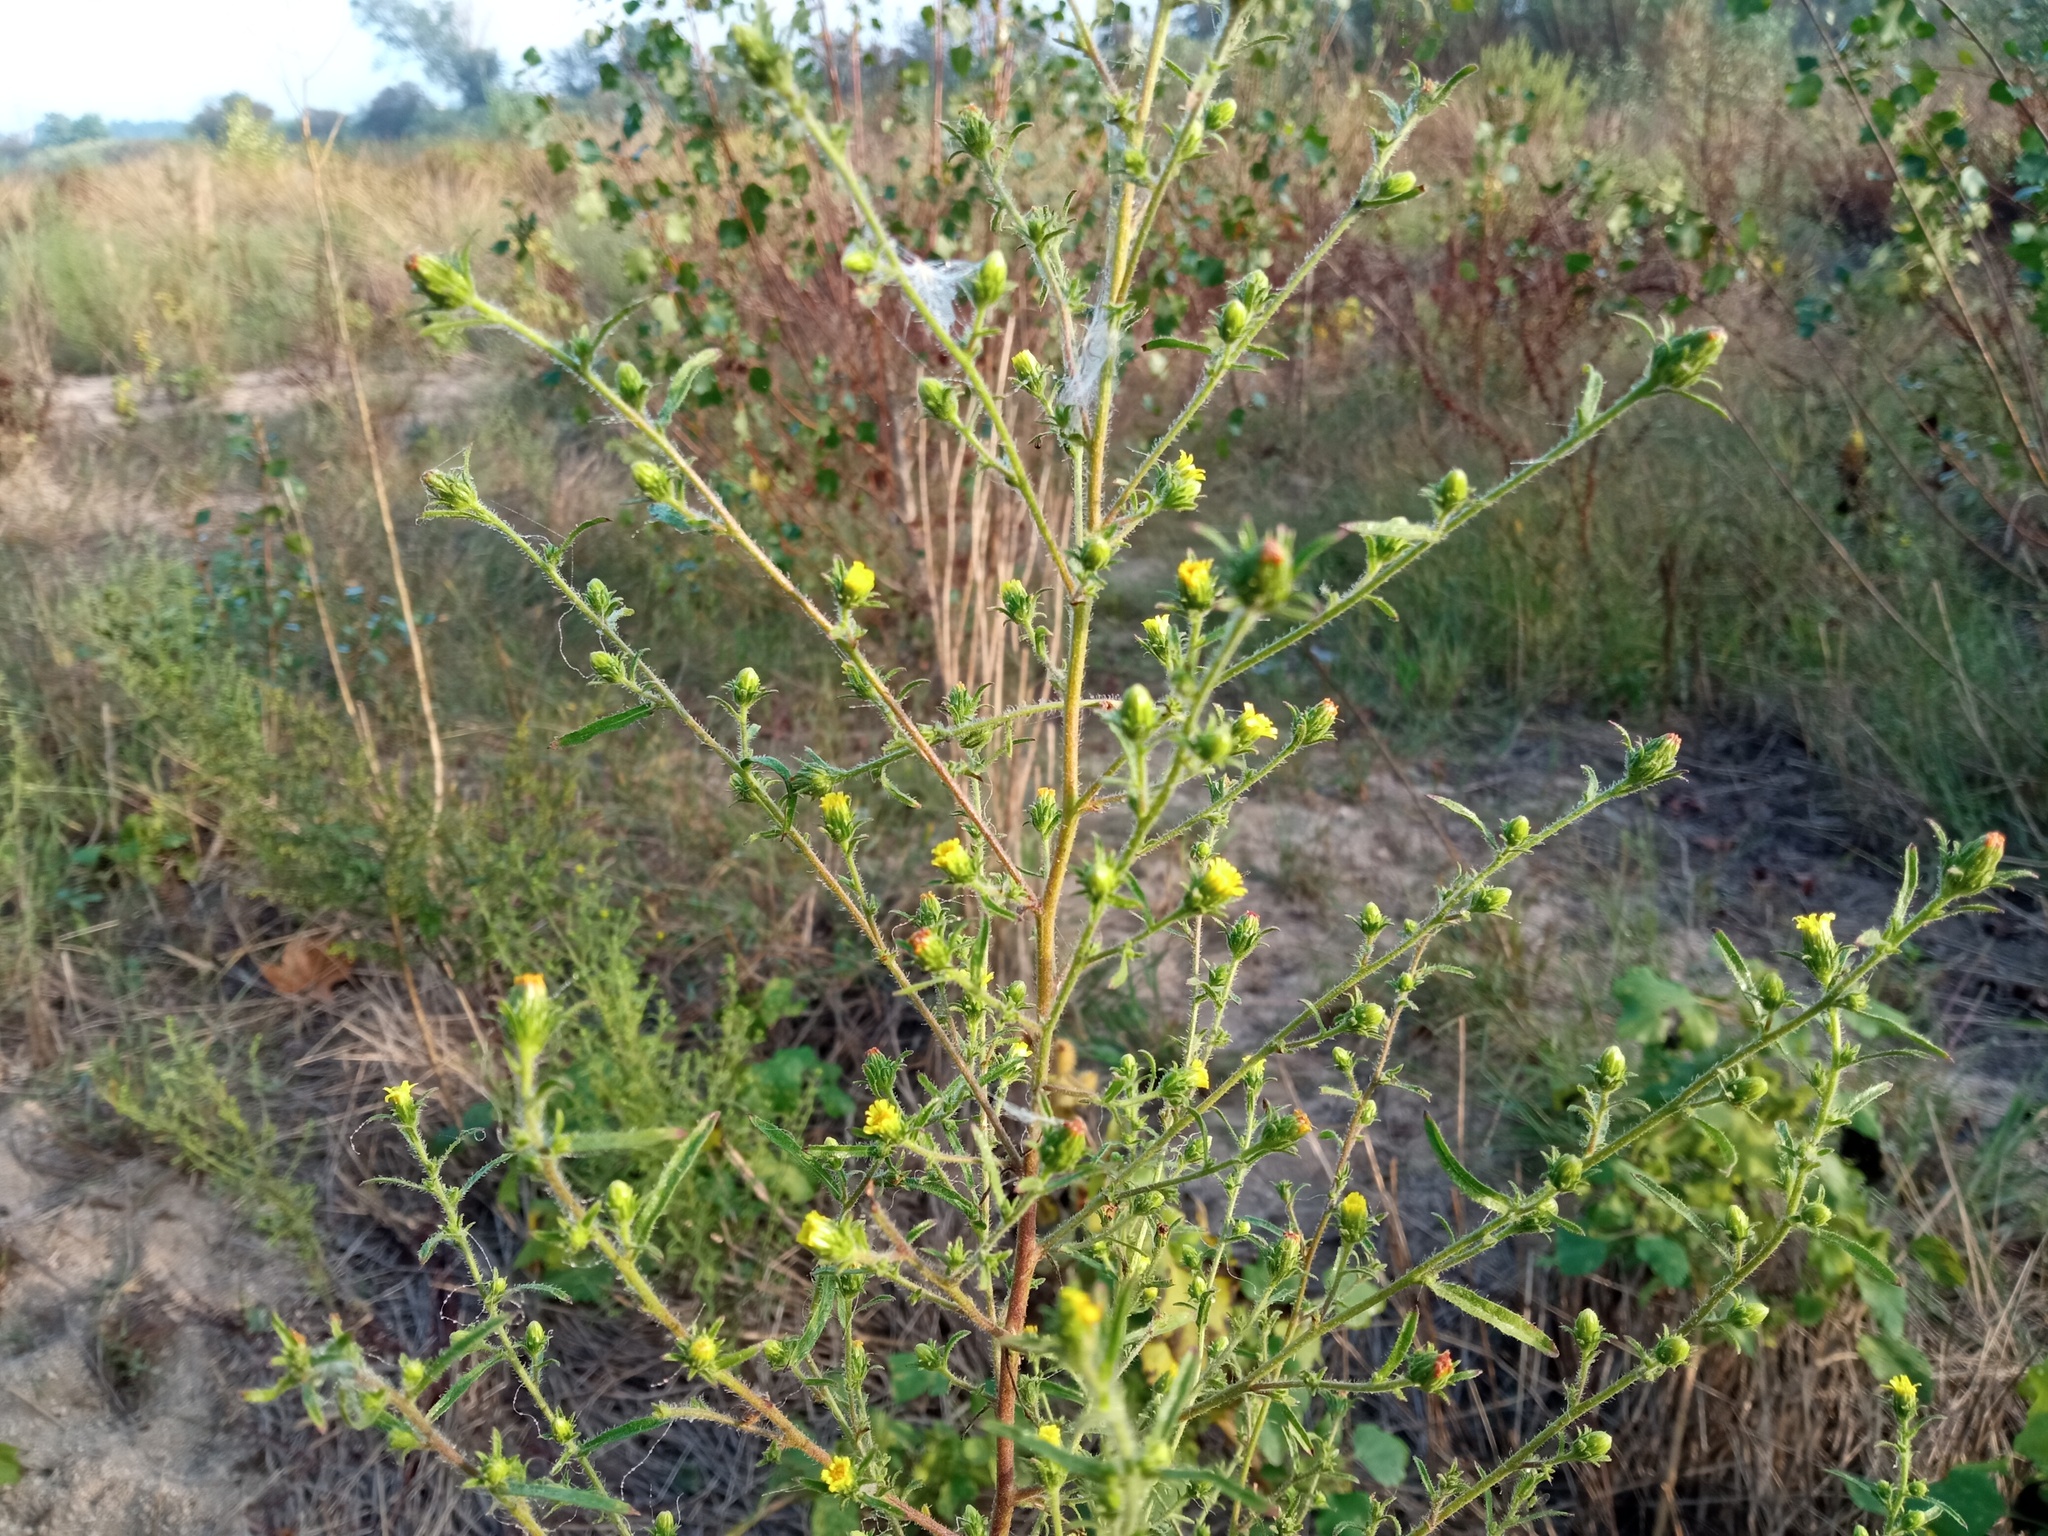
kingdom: Plantae
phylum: Tracheophyta
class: Magnoliopsida
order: Asterales
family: Asteraceae
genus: Dittrichia
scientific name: Dittrichia graveolens
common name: Stinking fleabane
